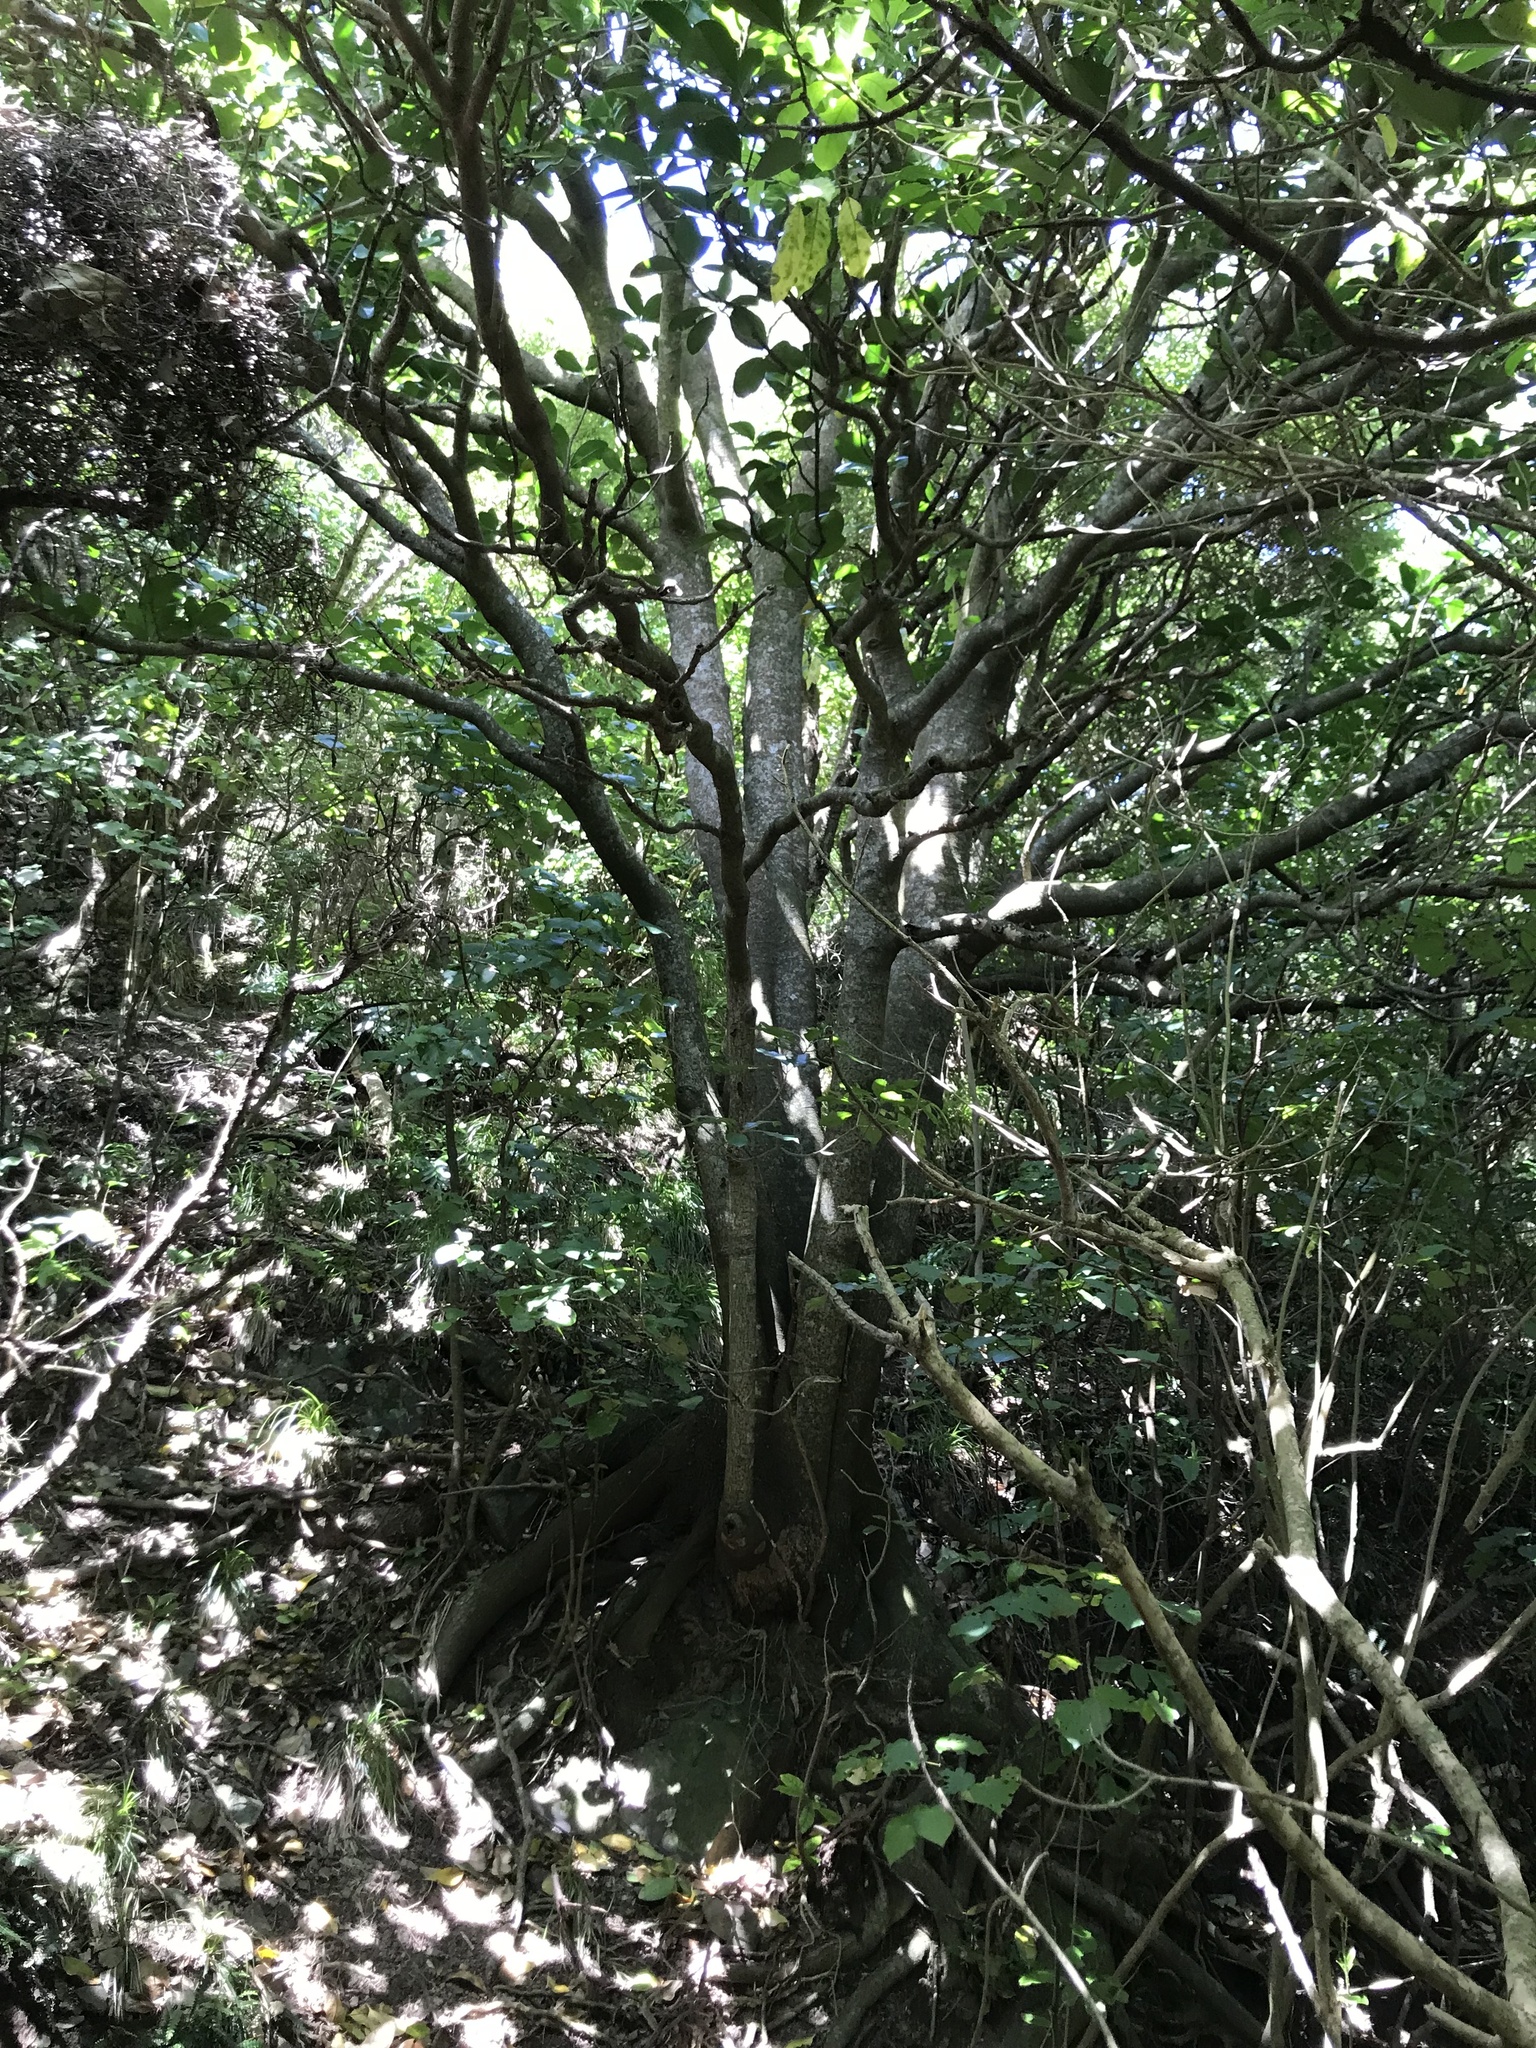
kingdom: Plantae
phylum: Tracheophyta
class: Magnoliopsida
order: Cucurbitales
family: Corynocarpaceae
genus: Corynocarpus
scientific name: Corynocarpus laevigatus
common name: New zealand laurel
